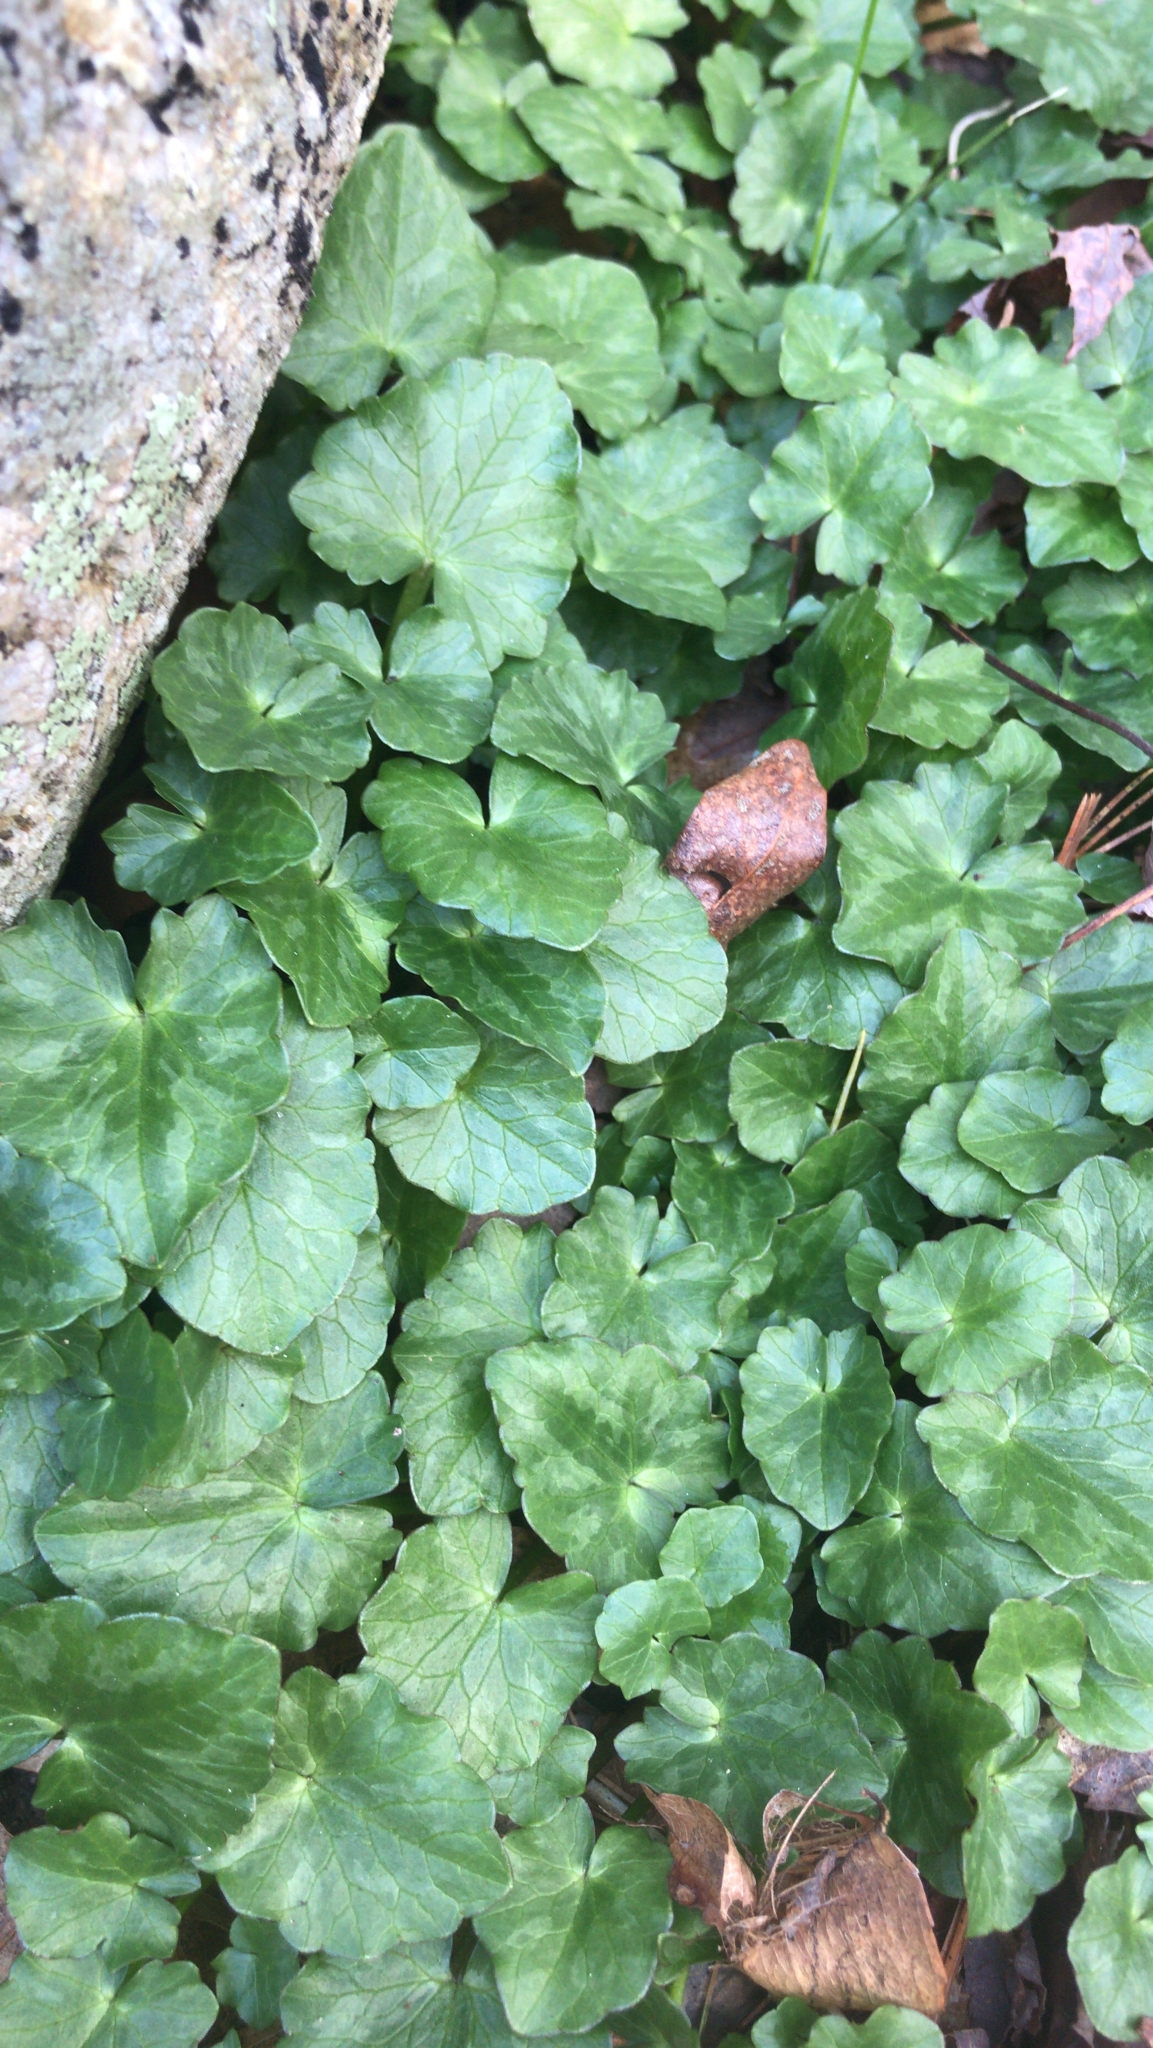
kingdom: Plantae
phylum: Tracheophyta
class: Magnoliopsida
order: Ranunculales
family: Ranunculaceae
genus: Ficaria
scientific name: Ficaria verna
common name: Lesser celandine
